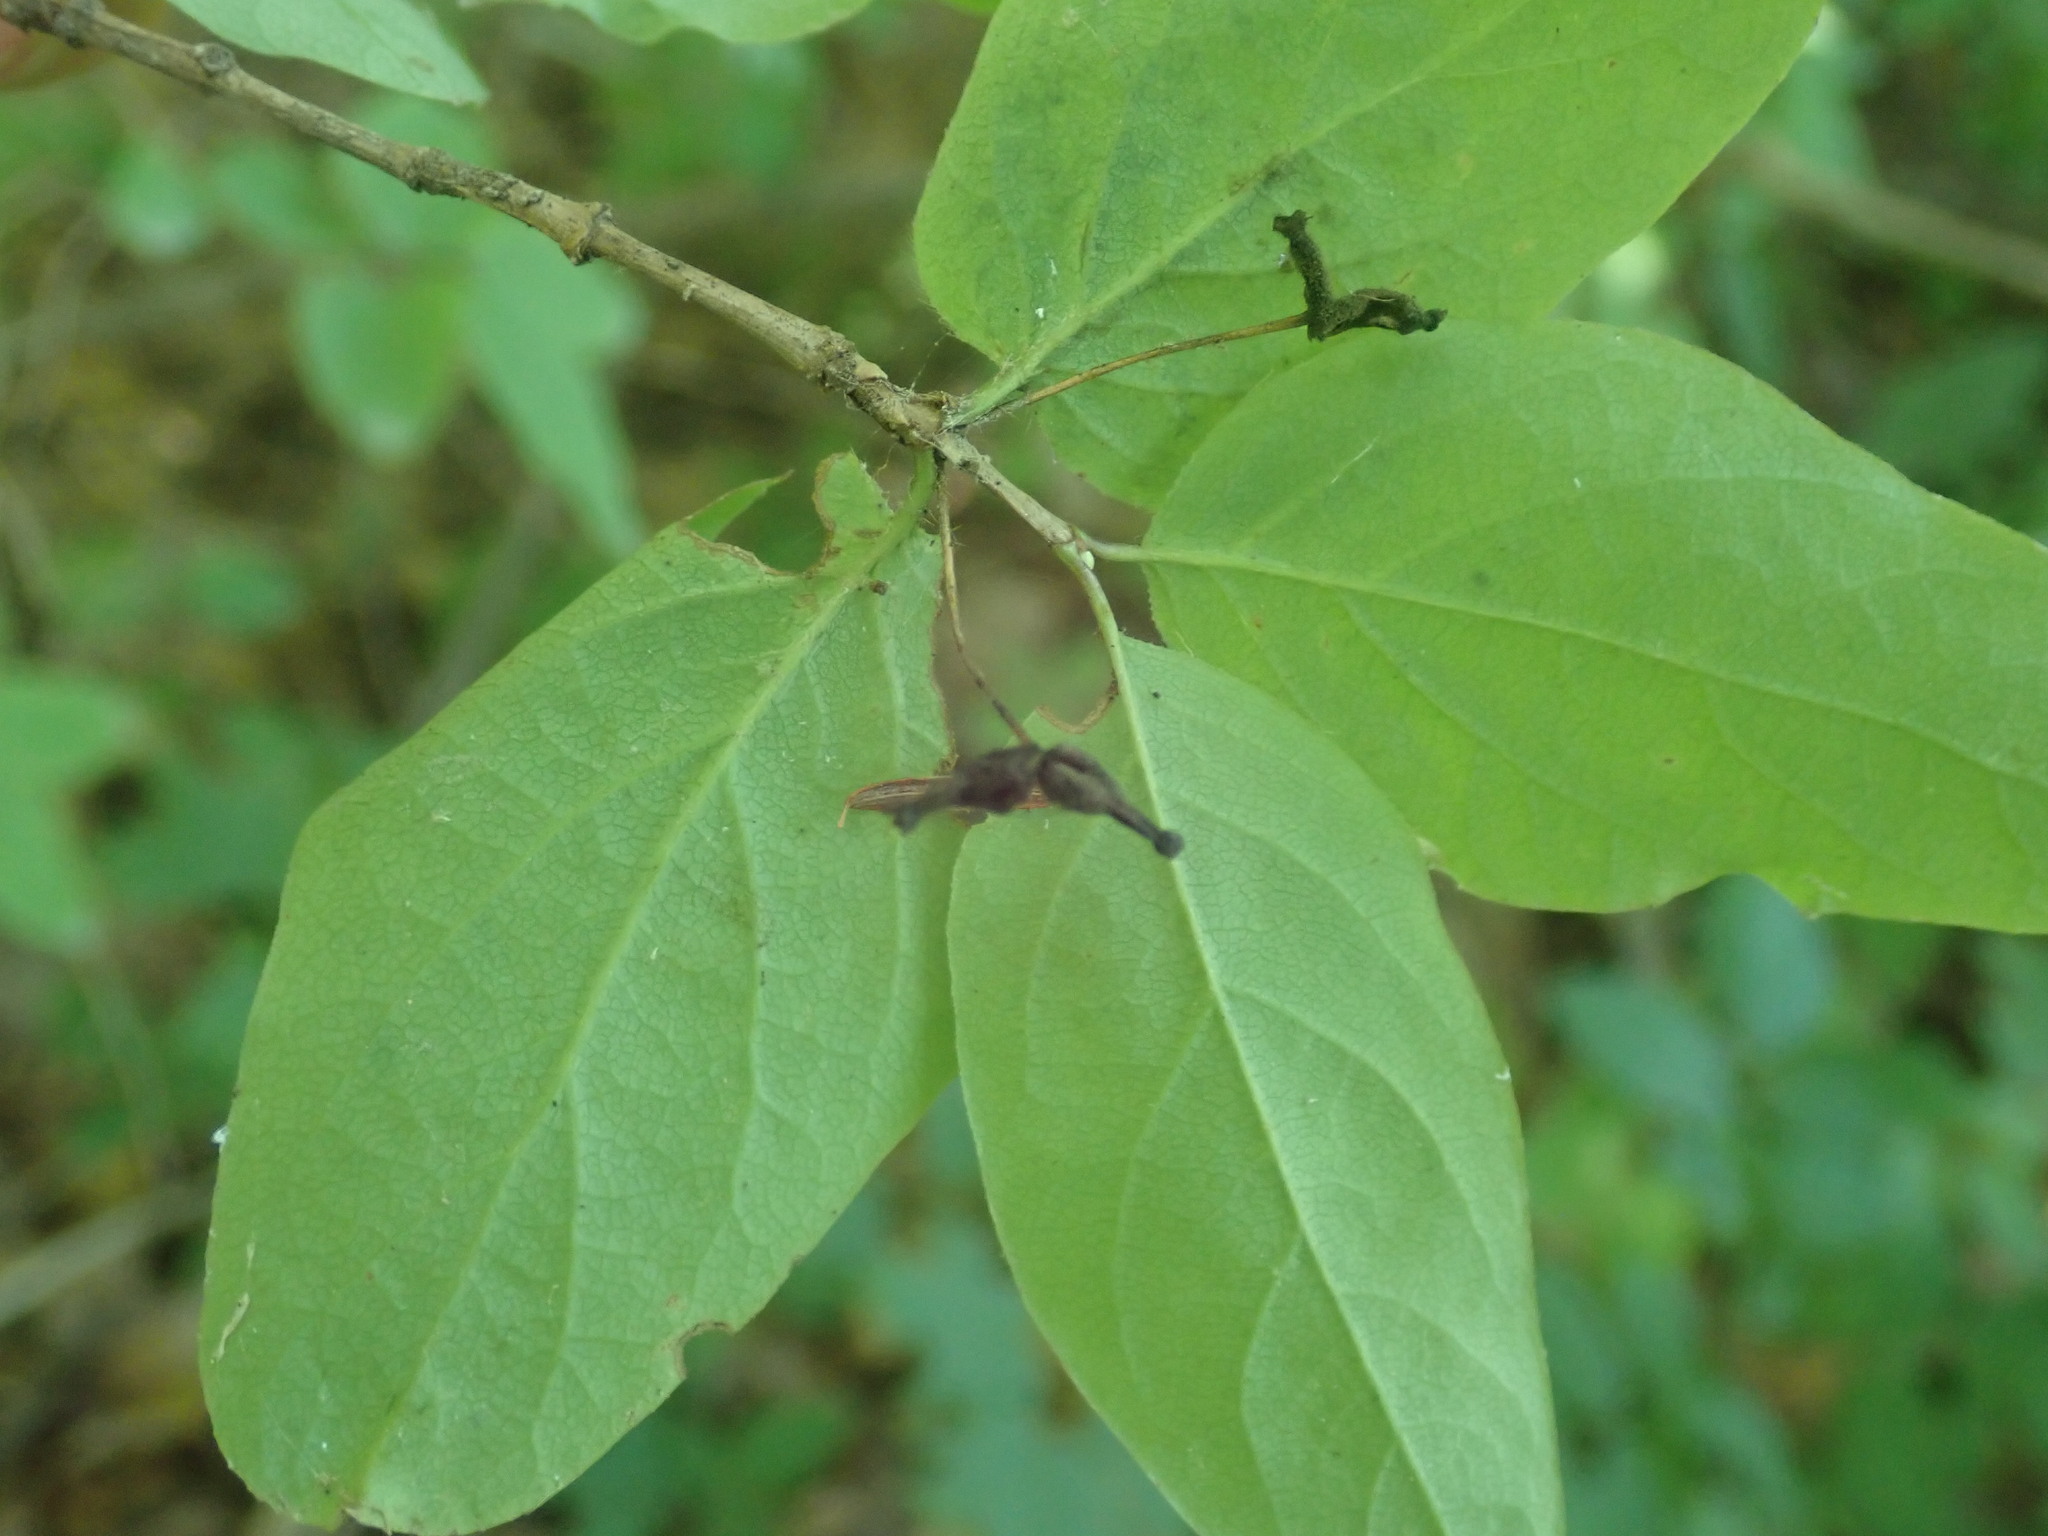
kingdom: Plantae
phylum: Tracheophyta
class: Magnoliopsida
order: Dipsacales
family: Caprifoliaceae
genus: Lonicera
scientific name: Lonicera canadensis
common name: American fly-honeysuckle
